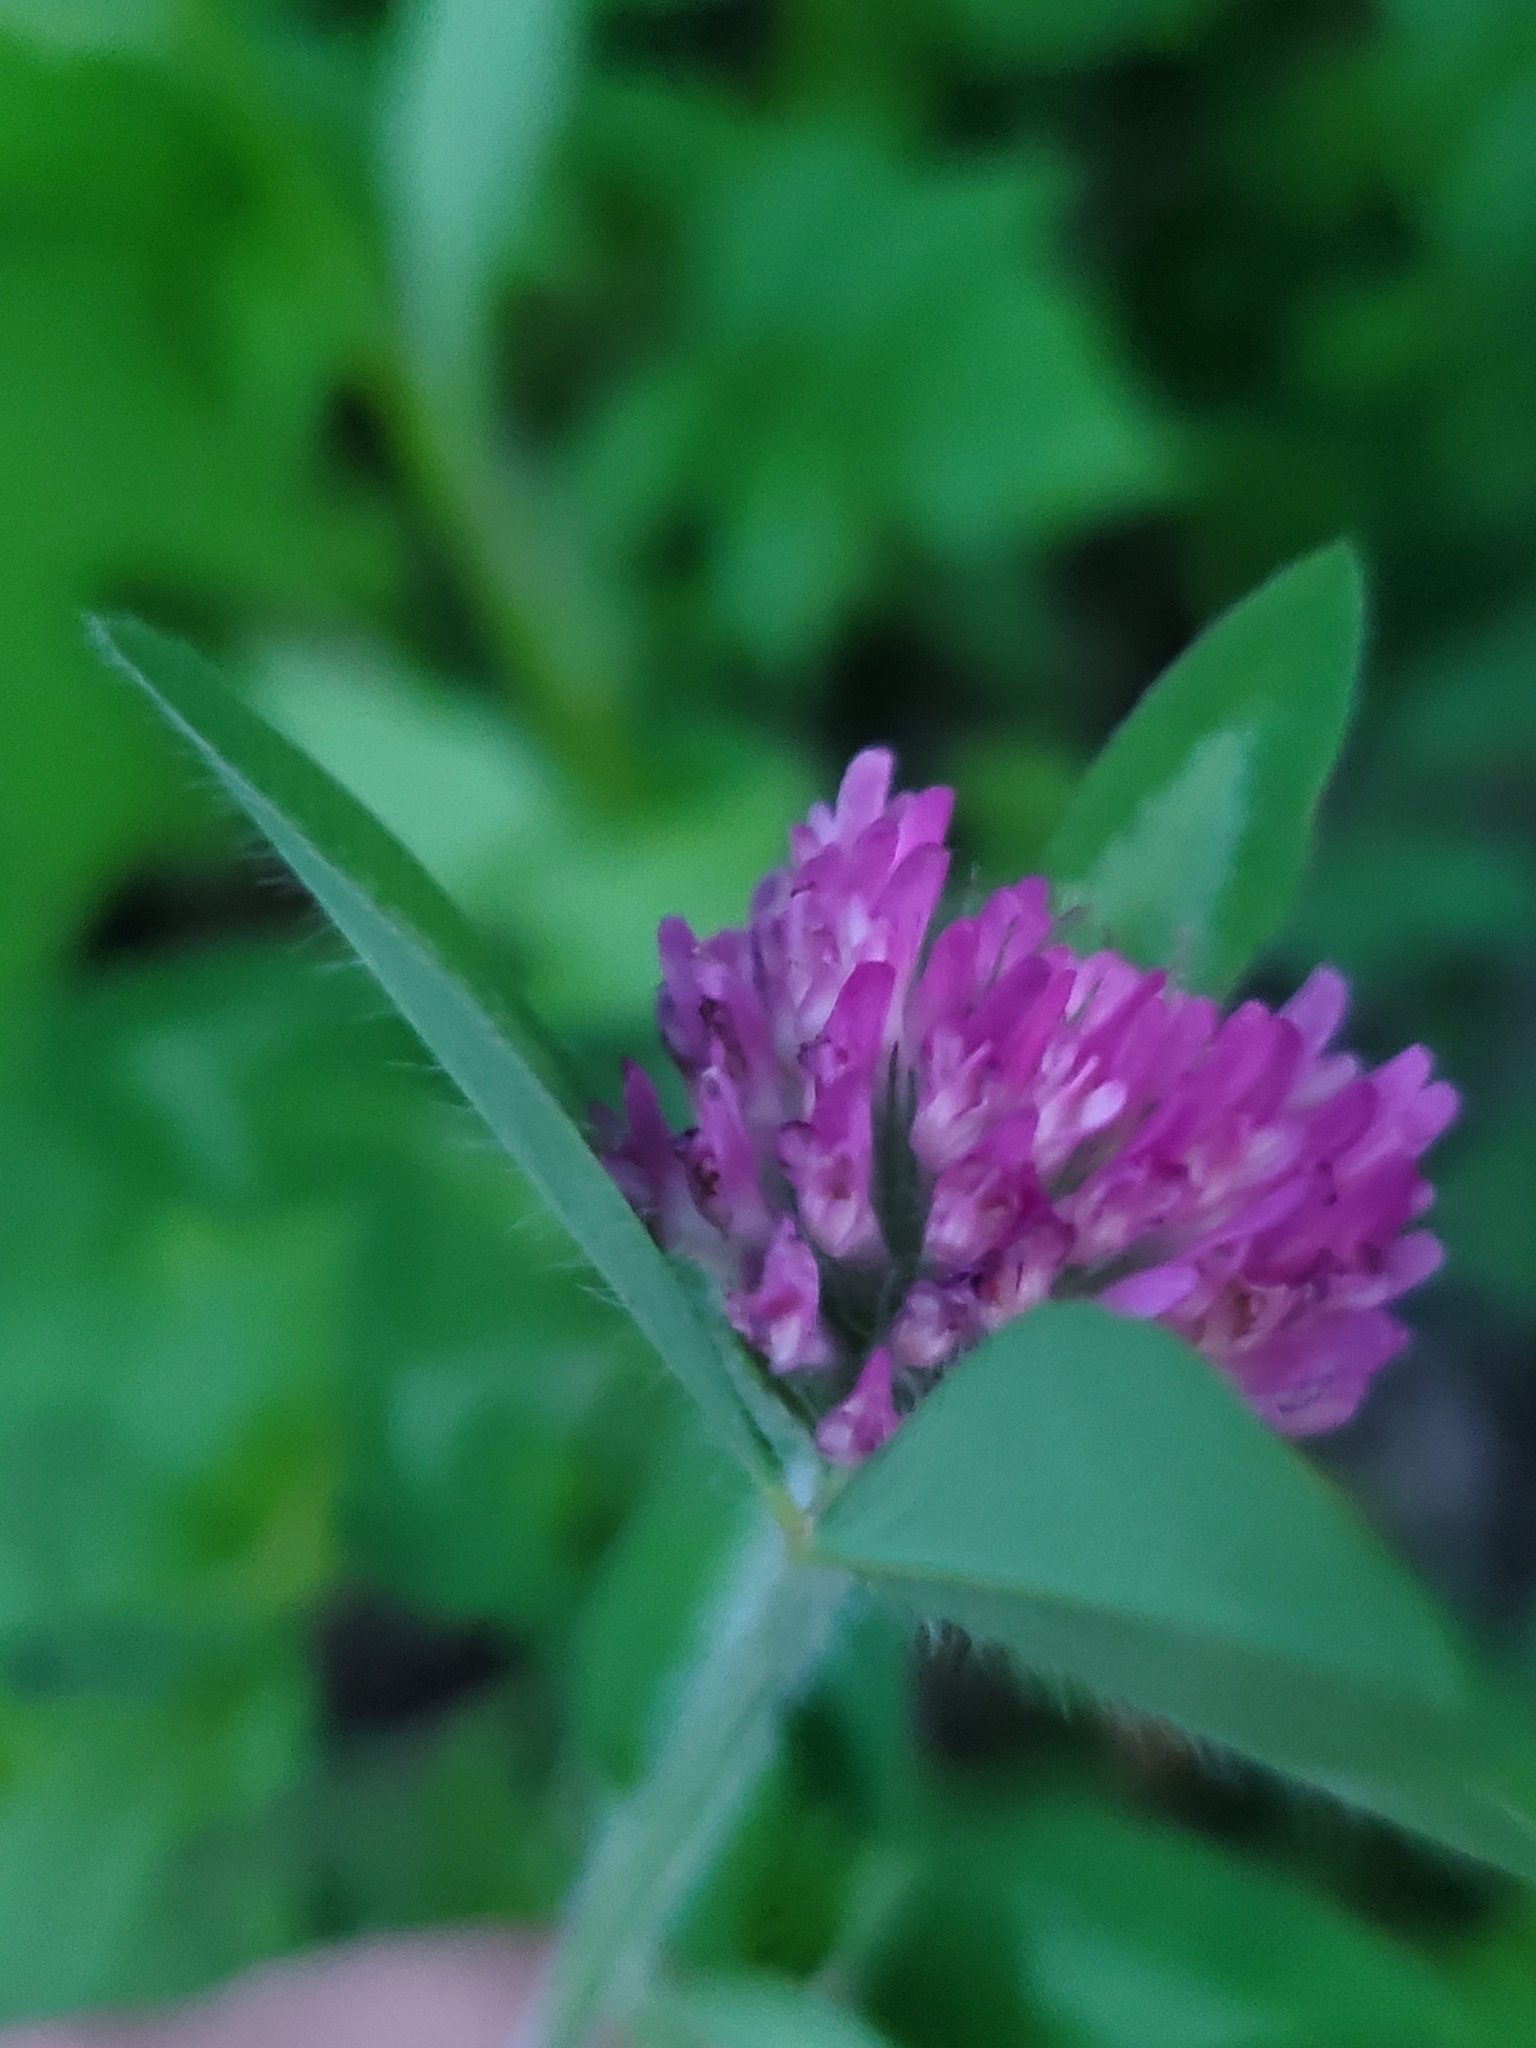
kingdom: Plantae
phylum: Tracheophyta
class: Magnoliopsida
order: Fabales
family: Fabaceae
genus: Trifolium
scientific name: Trifolium pratense
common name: Red clover
